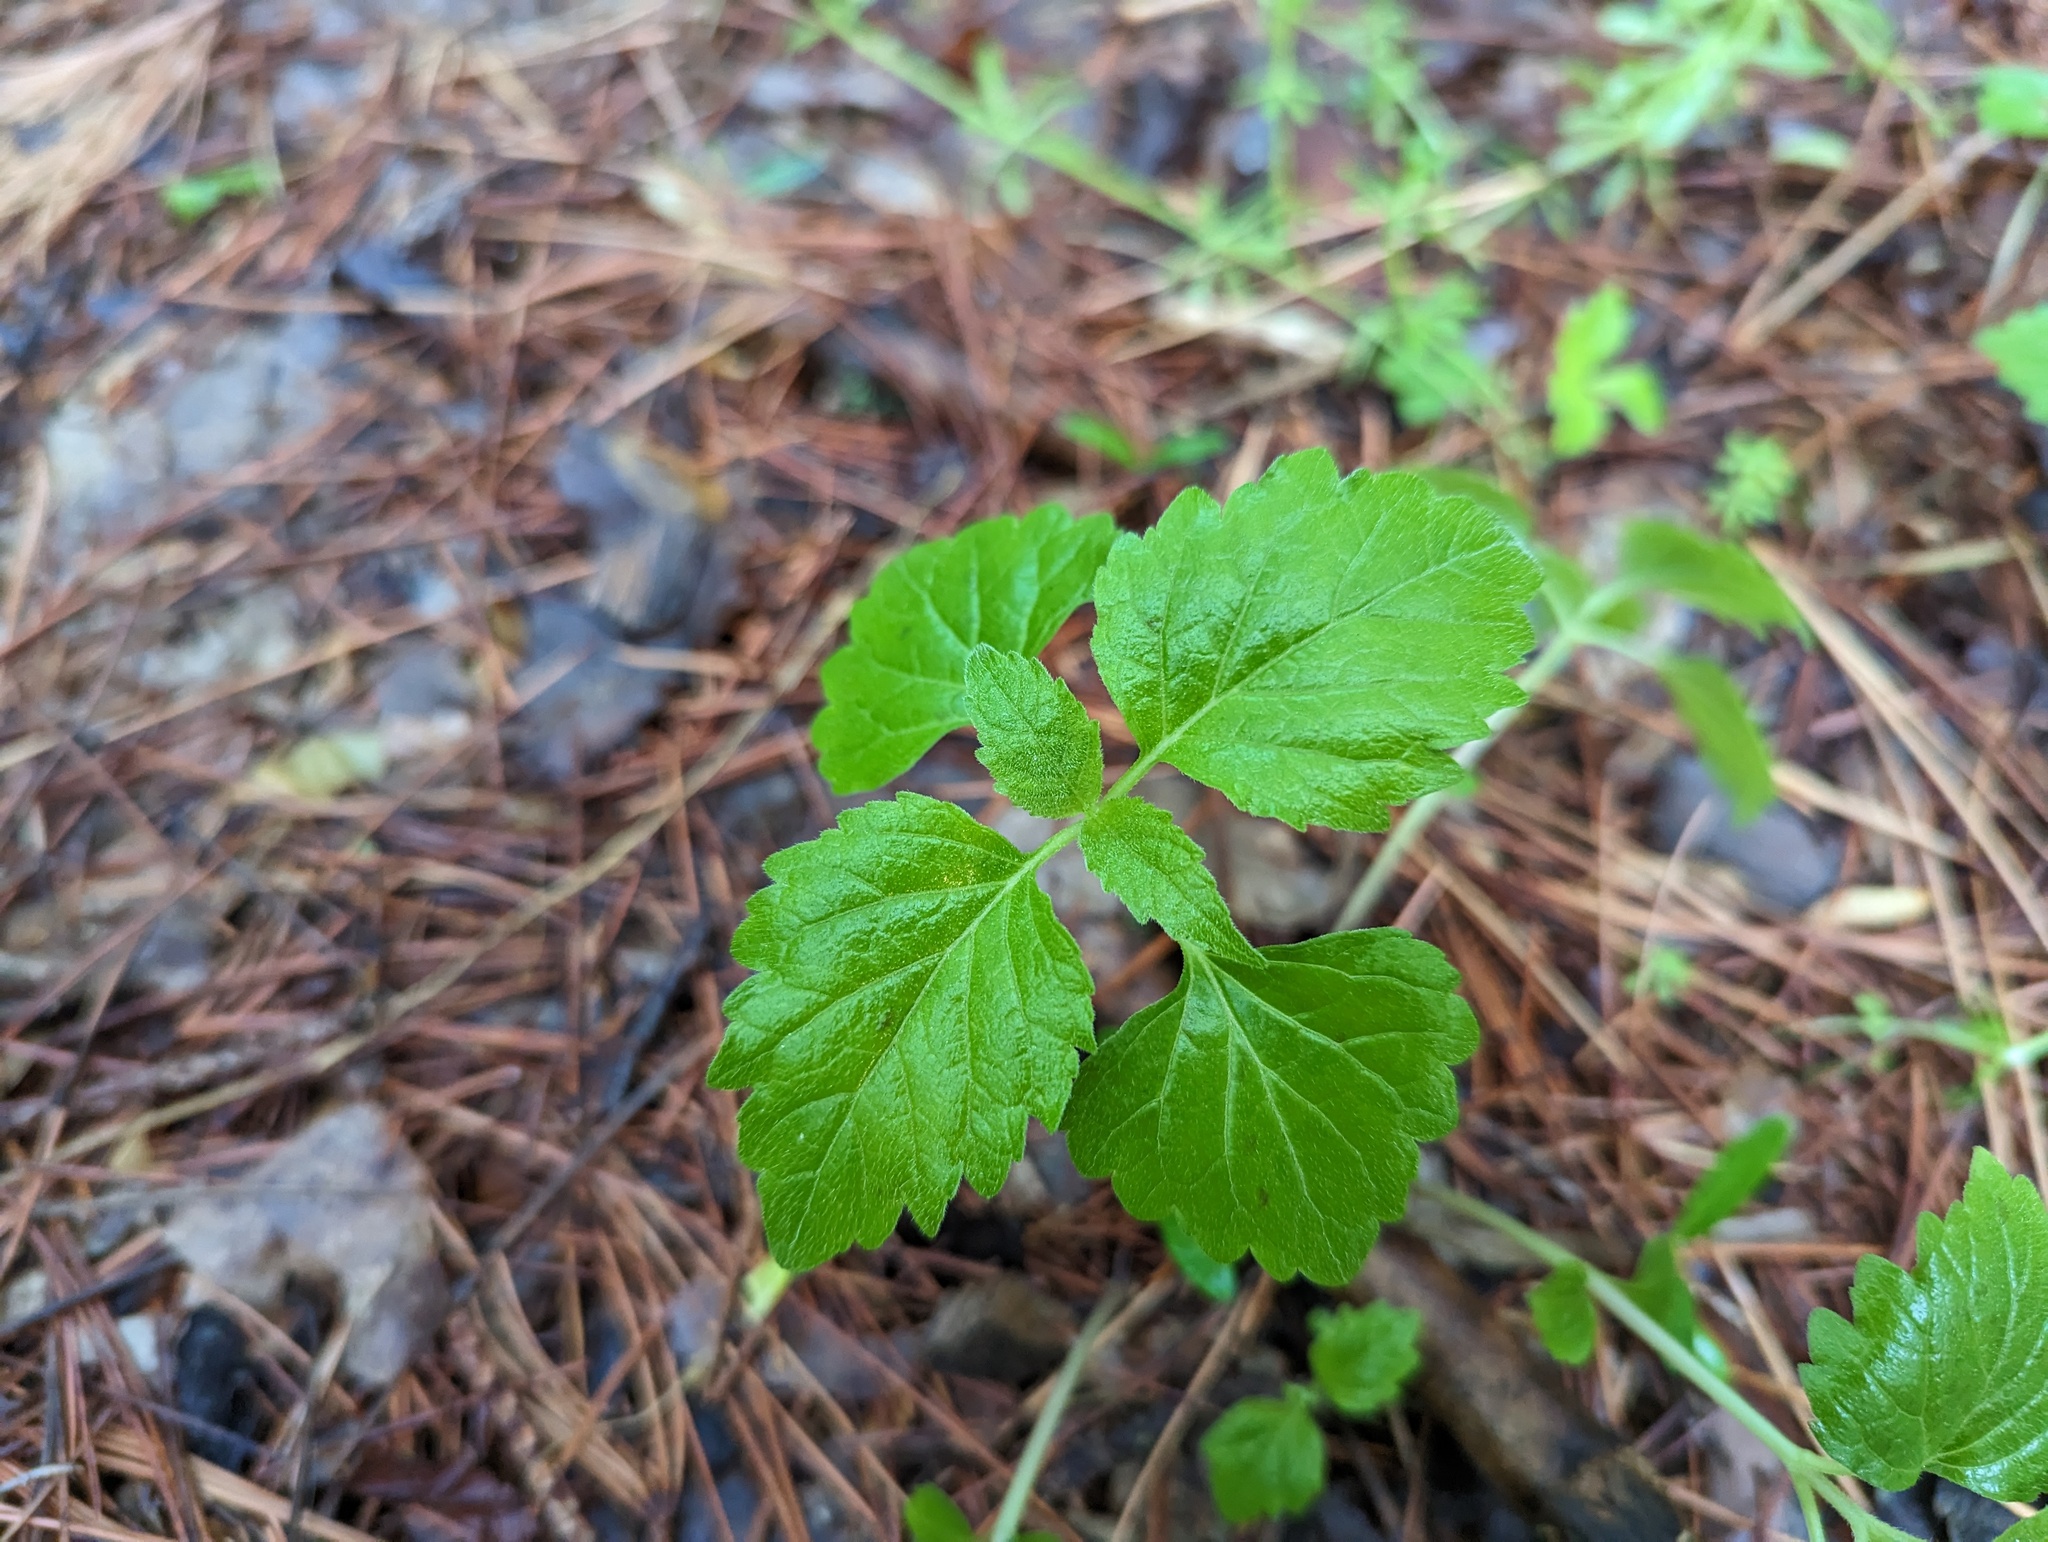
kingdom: Plantae
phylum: Tracheophyta
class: Magnoliopsida
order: Lamiales
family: Phrymaceae
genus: Phryma
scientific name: Phryma leptostachya
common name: American lopseed
